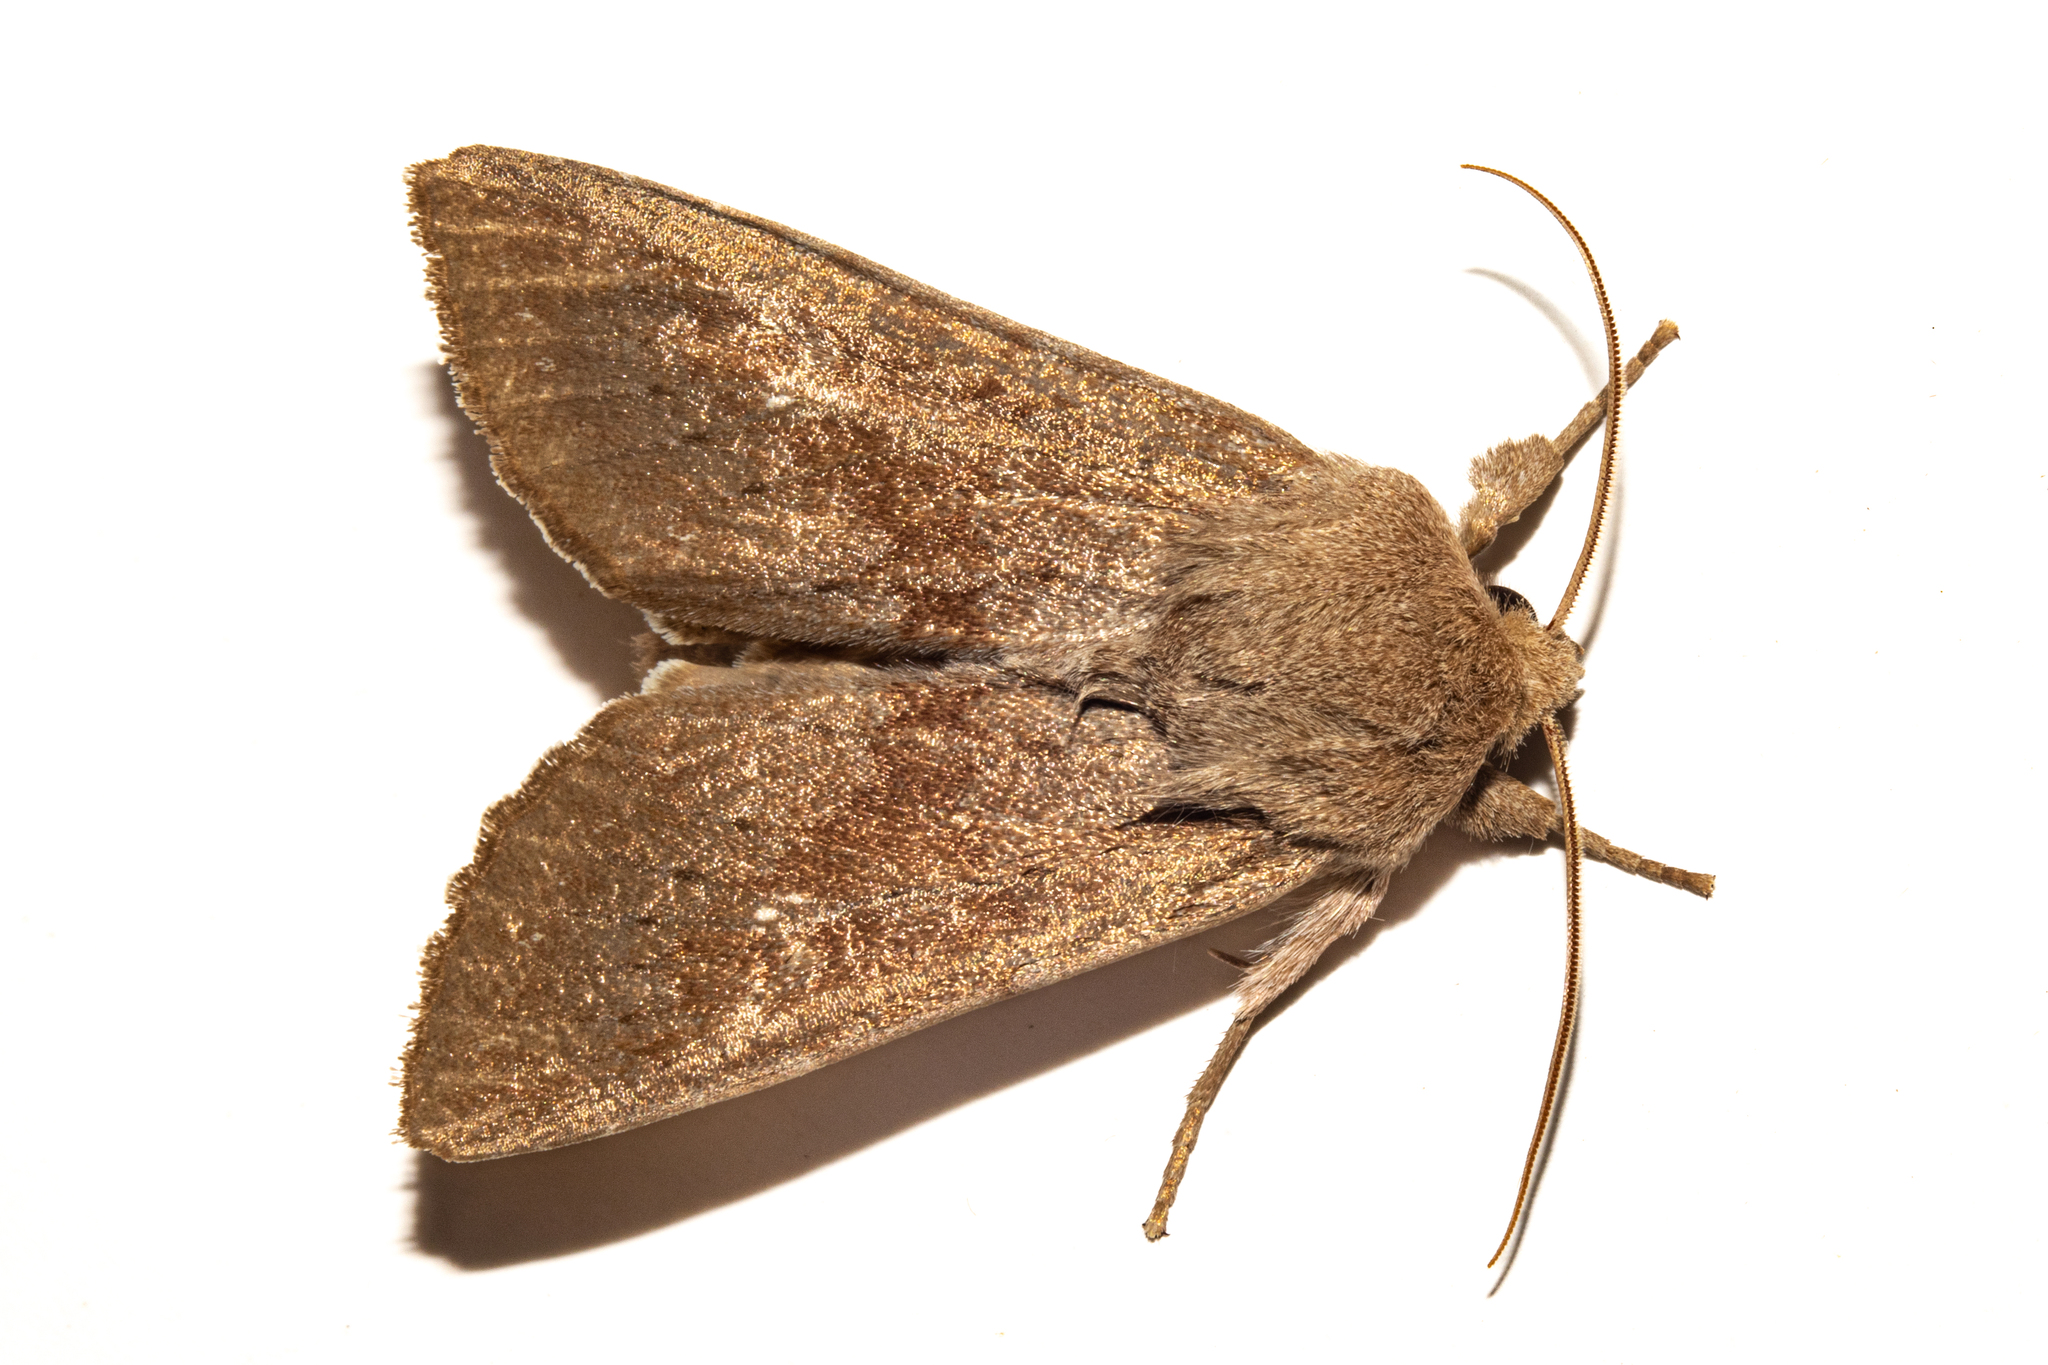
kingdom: Animalia
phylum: Arthropoda
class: Insecta
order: Lepidoptera
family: Noctuidae
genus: Ichneutica
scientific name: Ichneutica nullifera
